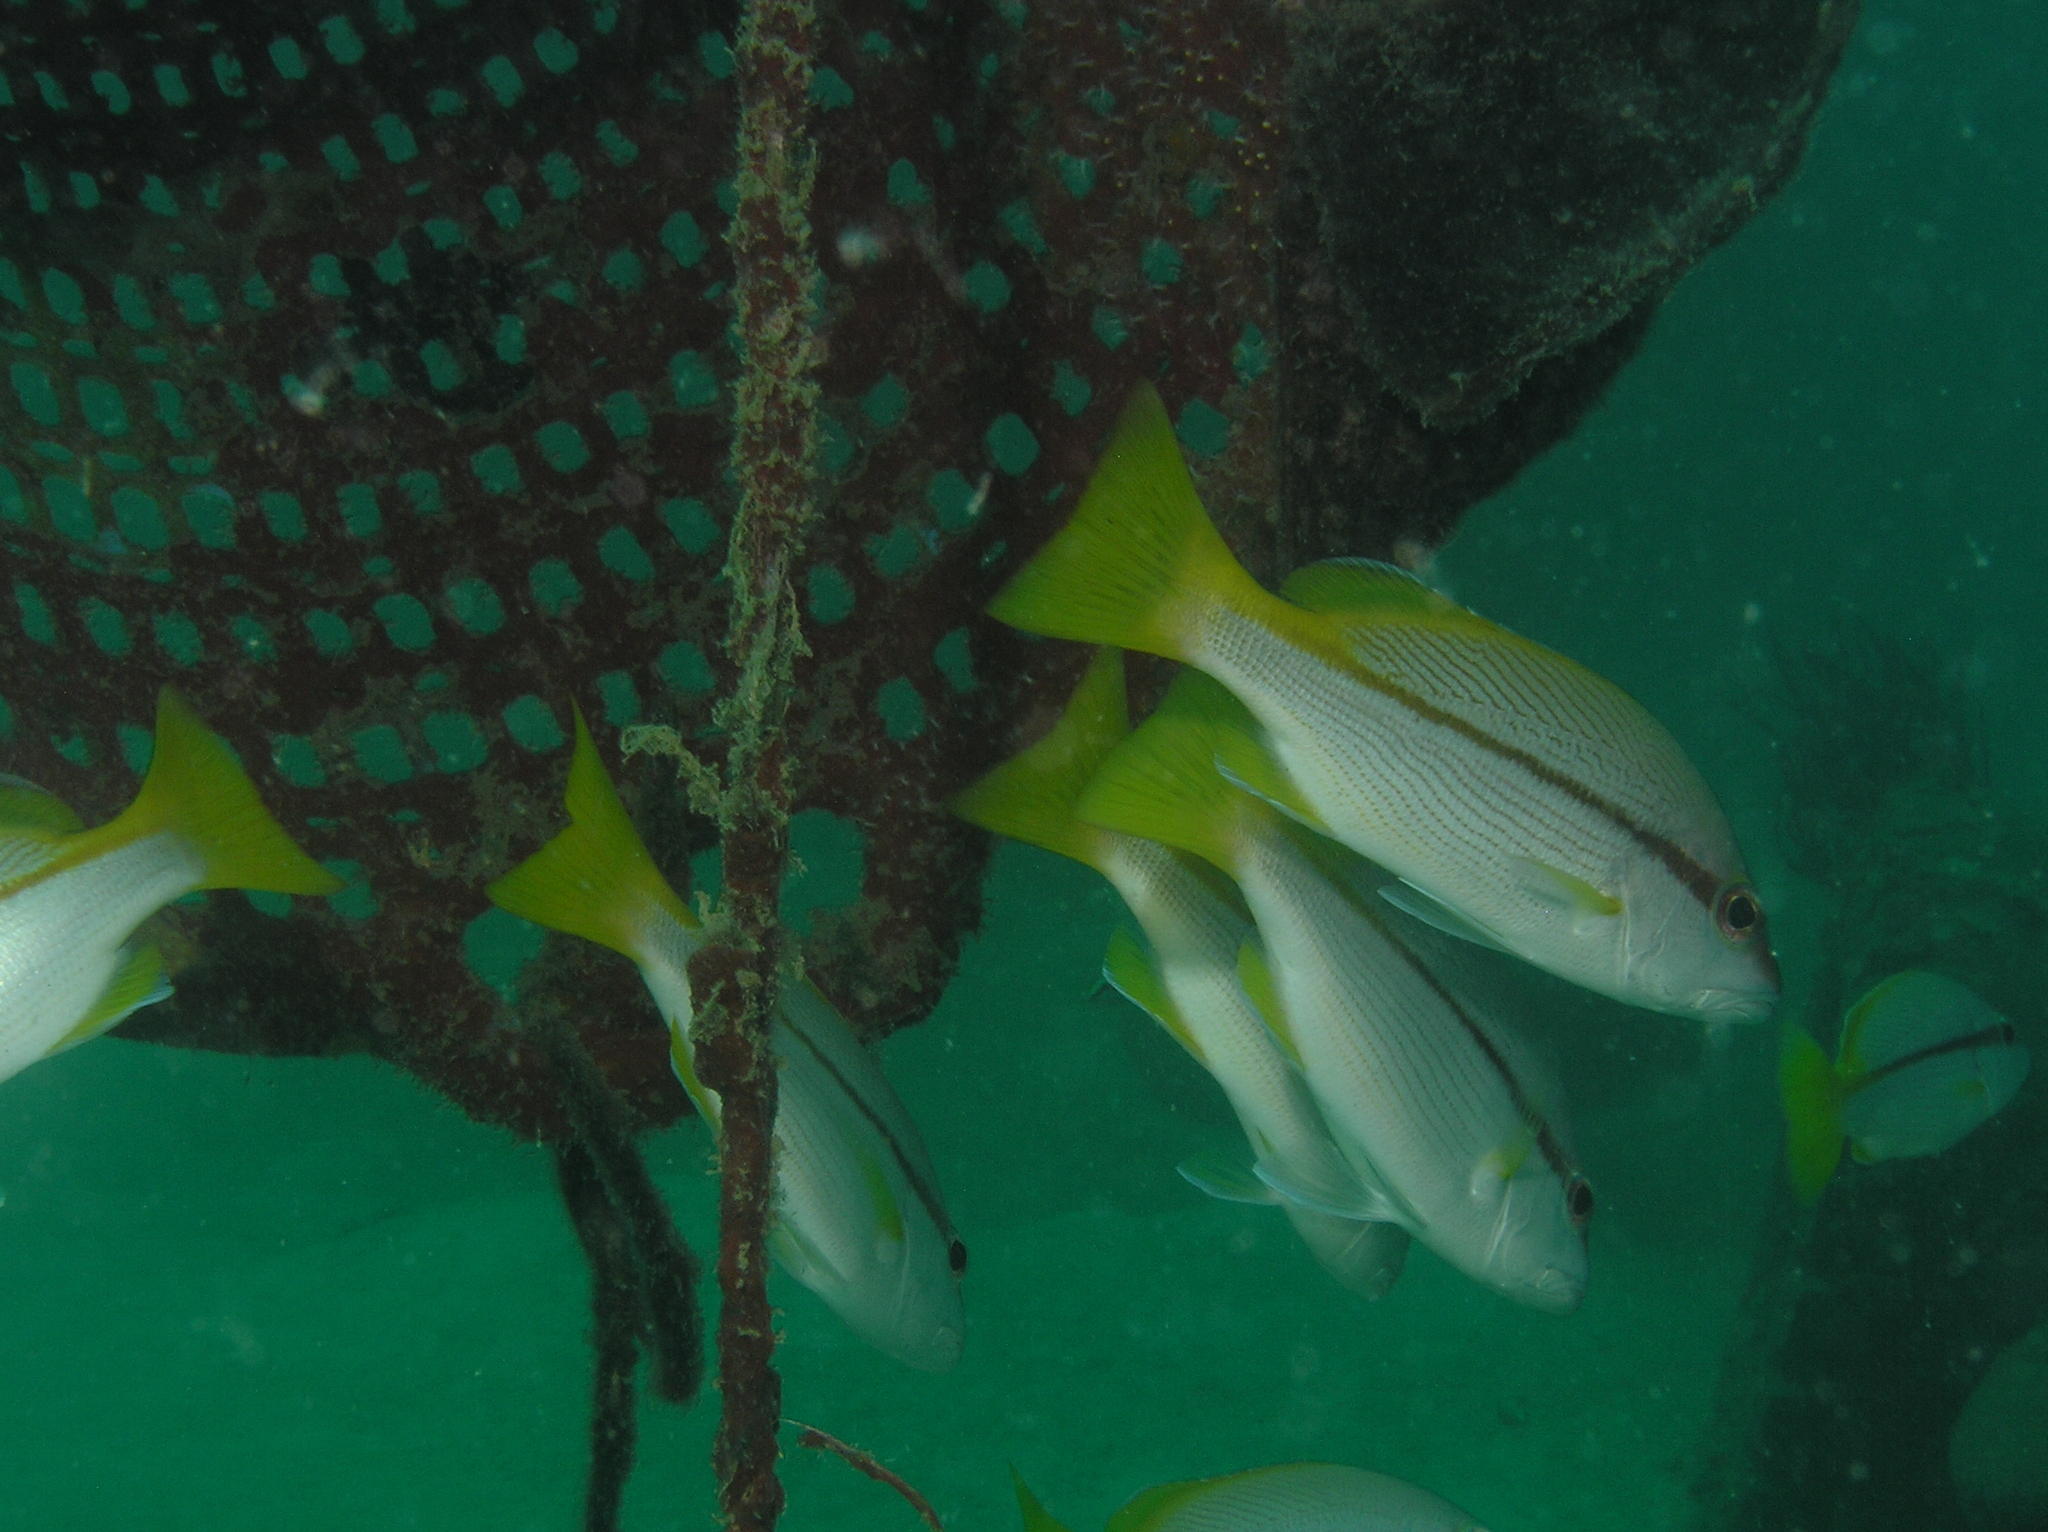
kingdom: Animalia
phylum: Chordata
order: Perciformes
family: Lutjanidae
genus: Lutjanus
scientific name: Lutjanus vitta
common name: Brownstripe red snapper
